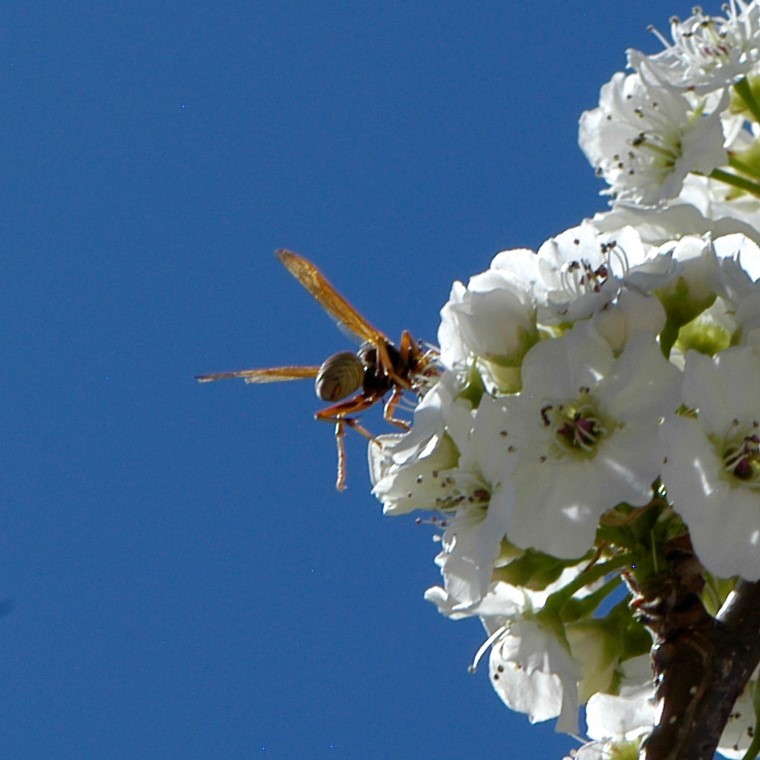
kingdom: Animalia
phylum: Arthropoda
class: Insecta
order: Hymenoptera
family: Eumenidae
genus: Polistes
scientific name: Polistes aurifer
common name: Paper wasp
